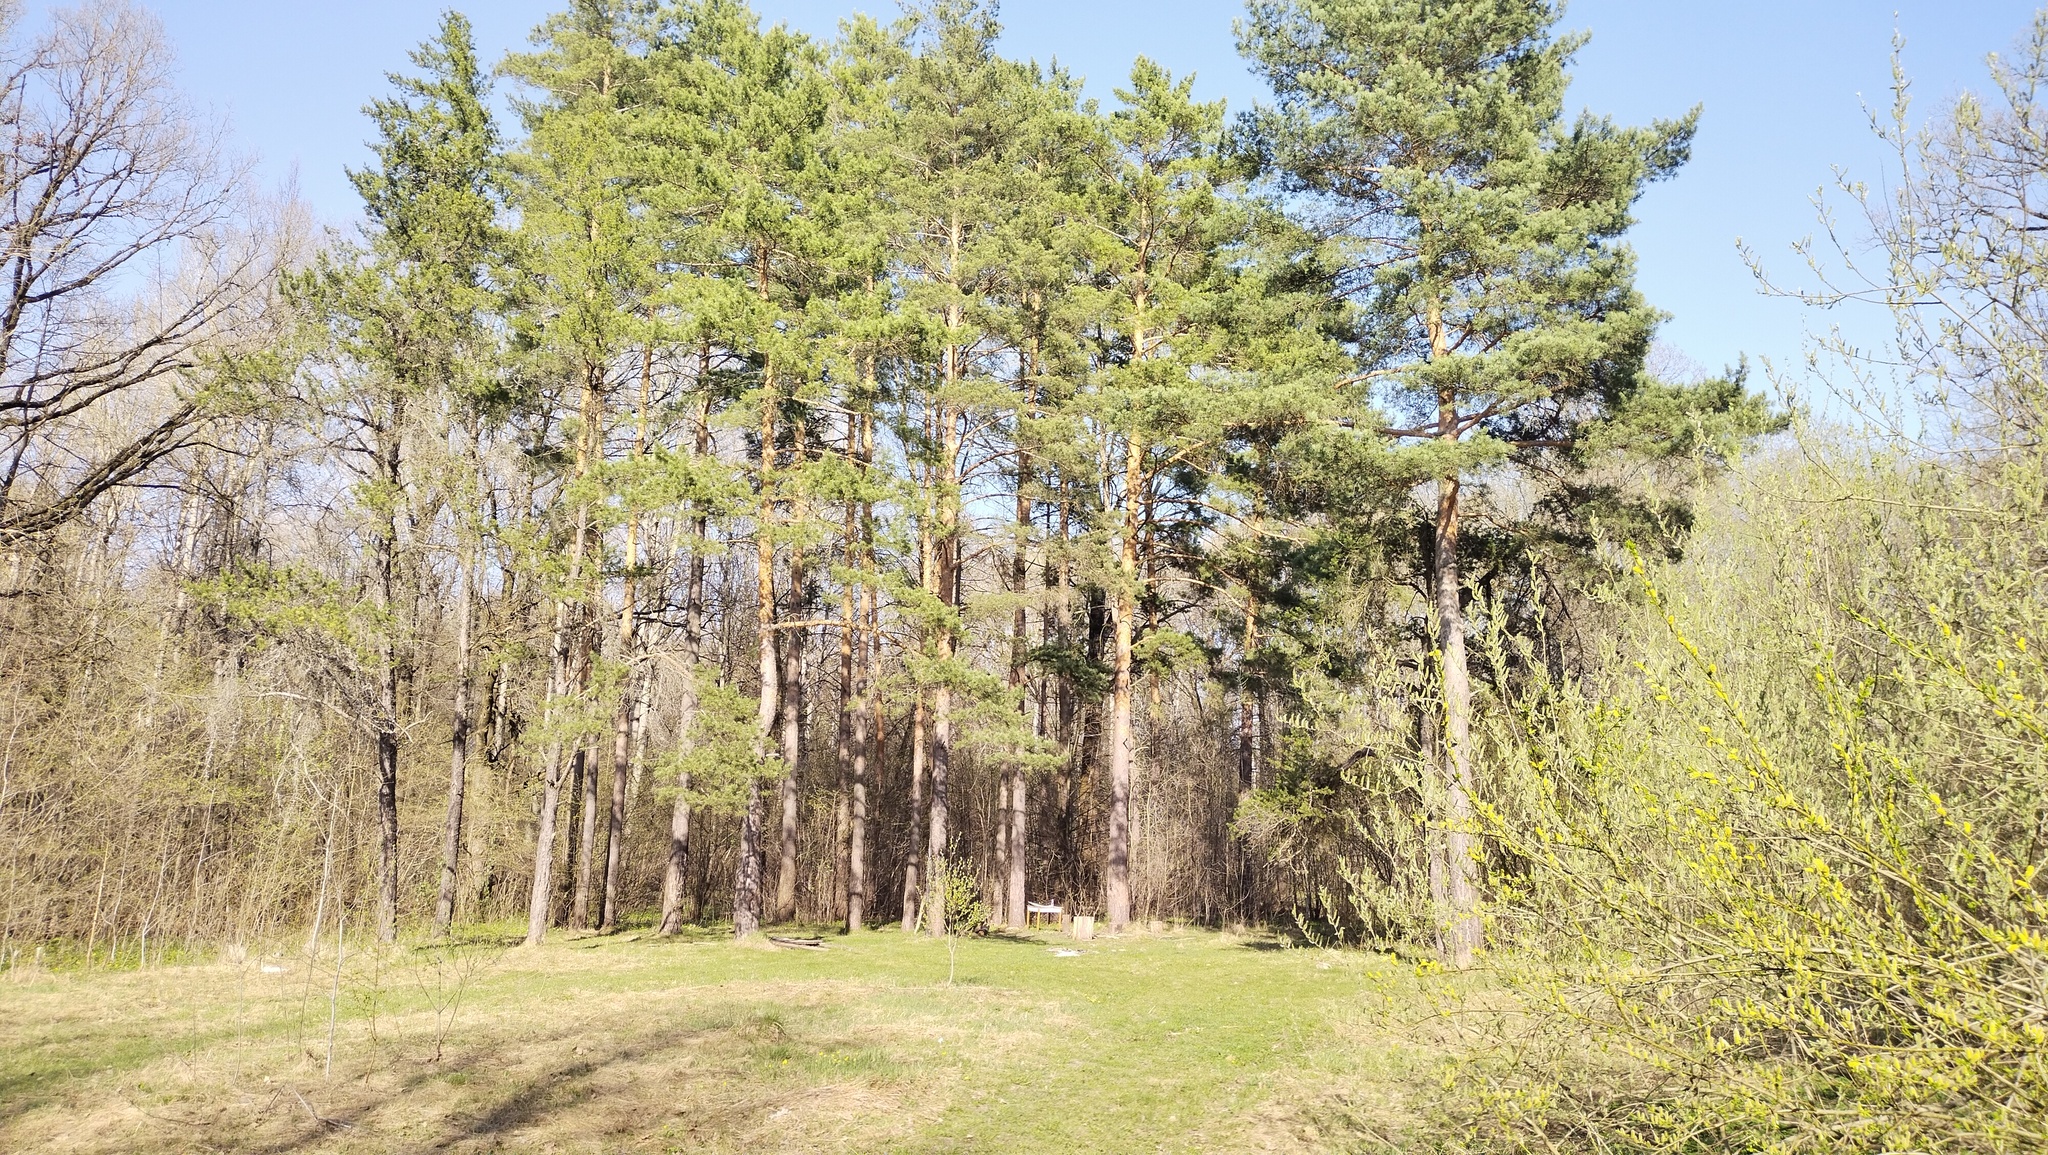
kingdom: Plantae
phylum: Tracheophyta
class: Pinopsida
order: Pinales
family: Pinaceae
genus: Pinus
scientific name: Pinus sylvestris
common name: Scots pine
